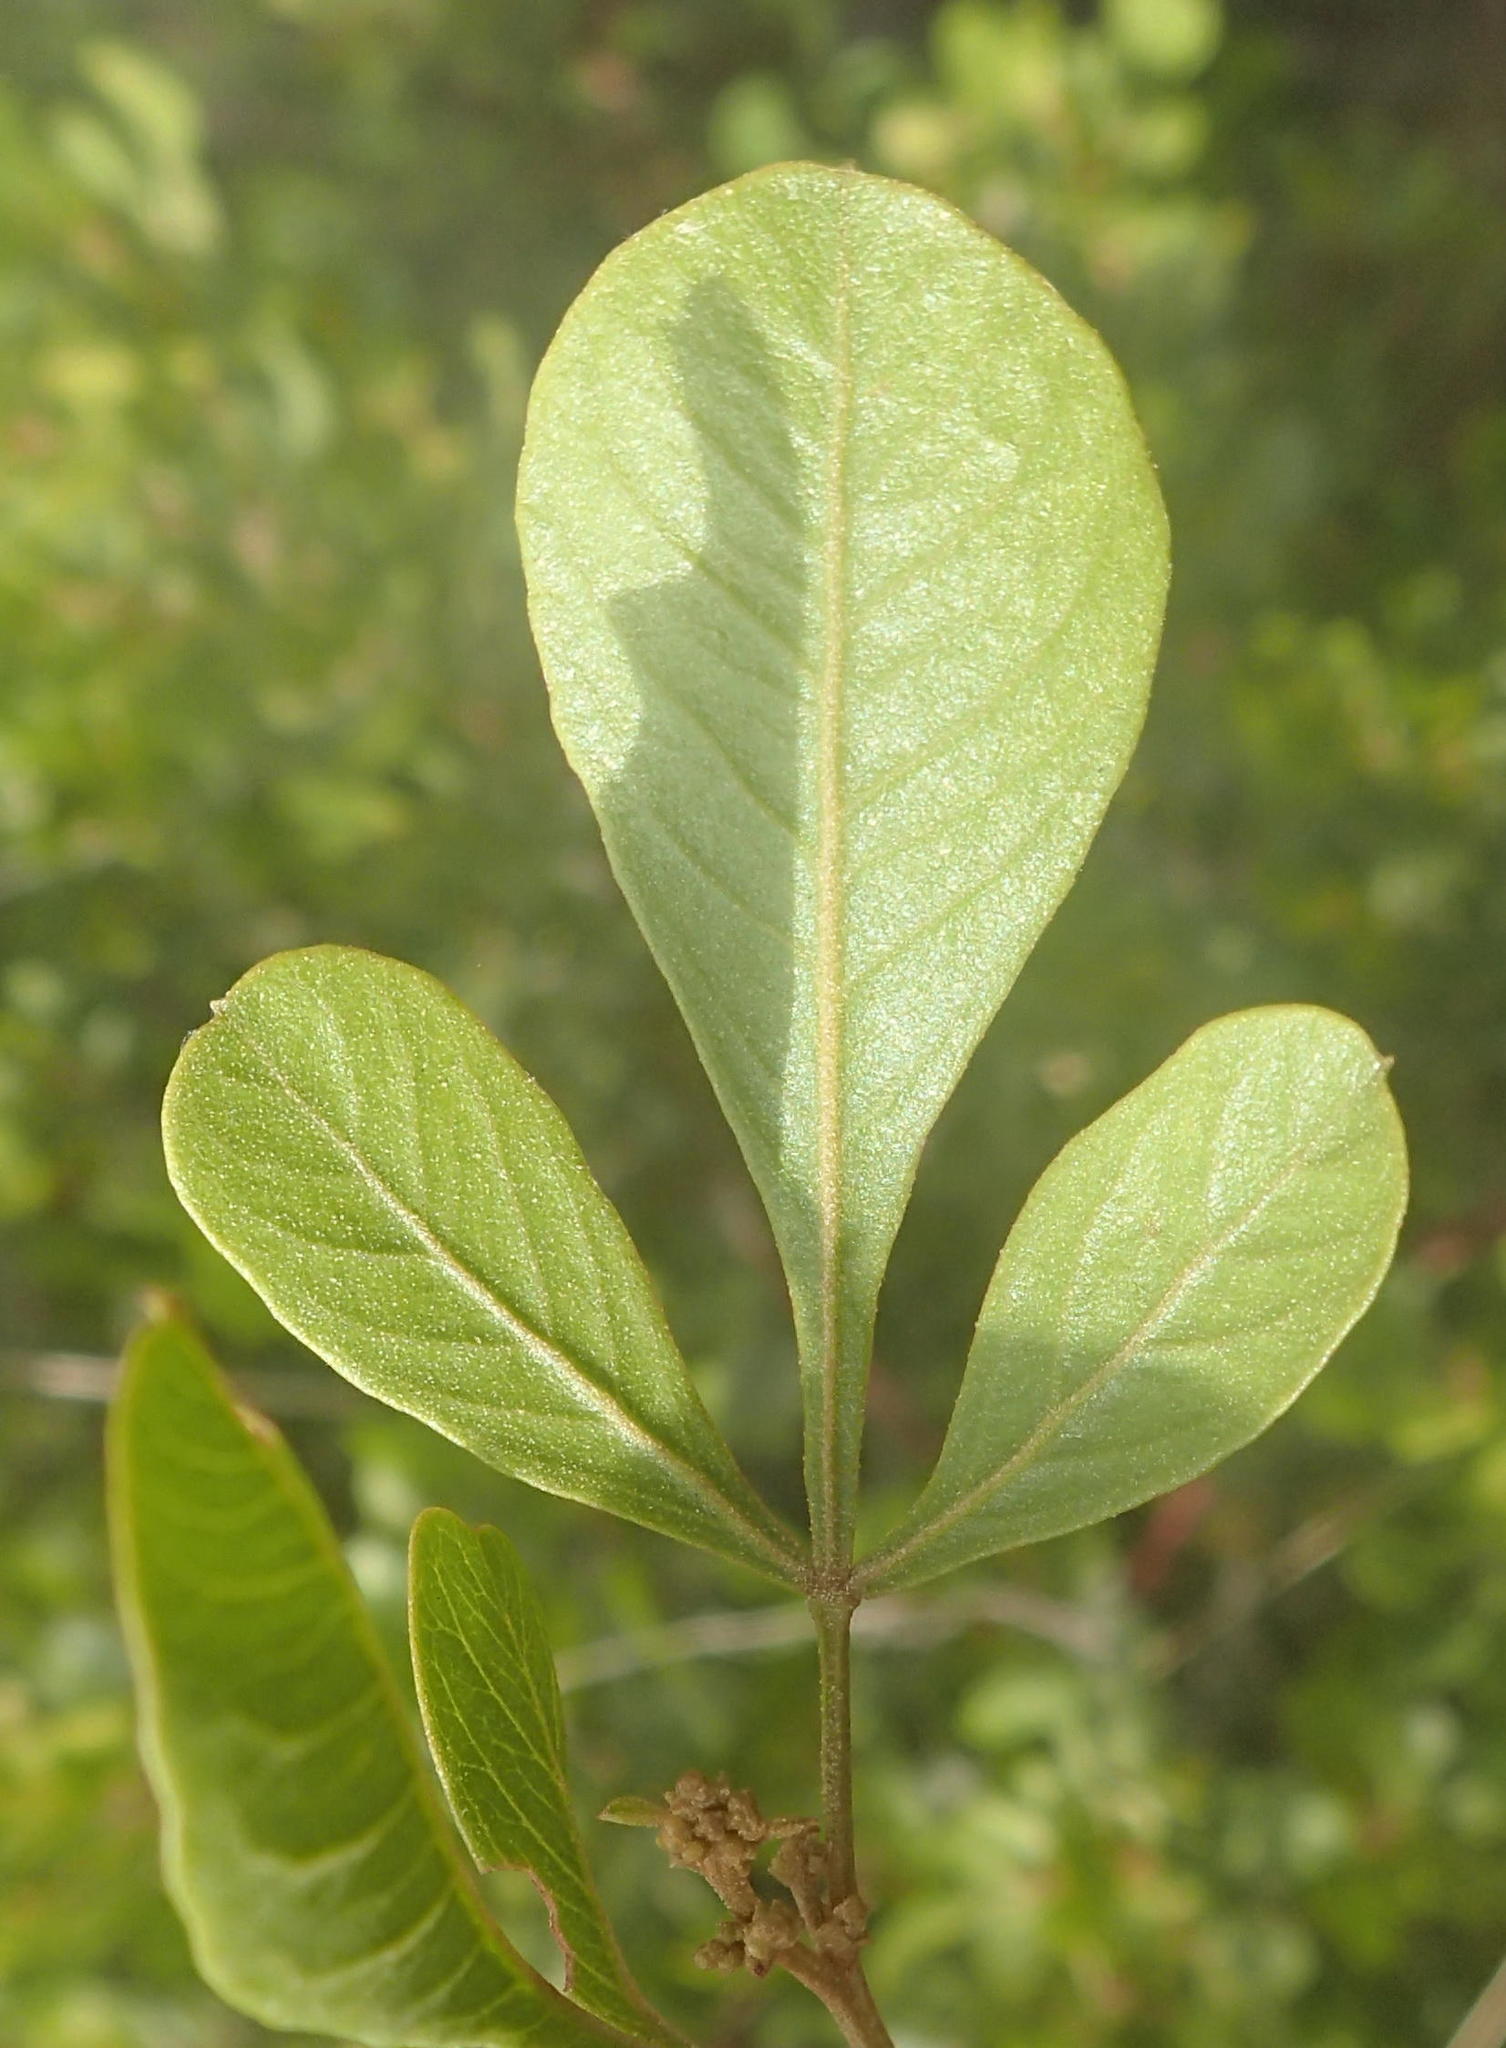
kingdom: Plantae
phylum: Tracheophyta
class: Magnoliopsida
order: Sapindales
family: Anacardiaceae
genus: Searsia
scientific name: Searsia lucida
